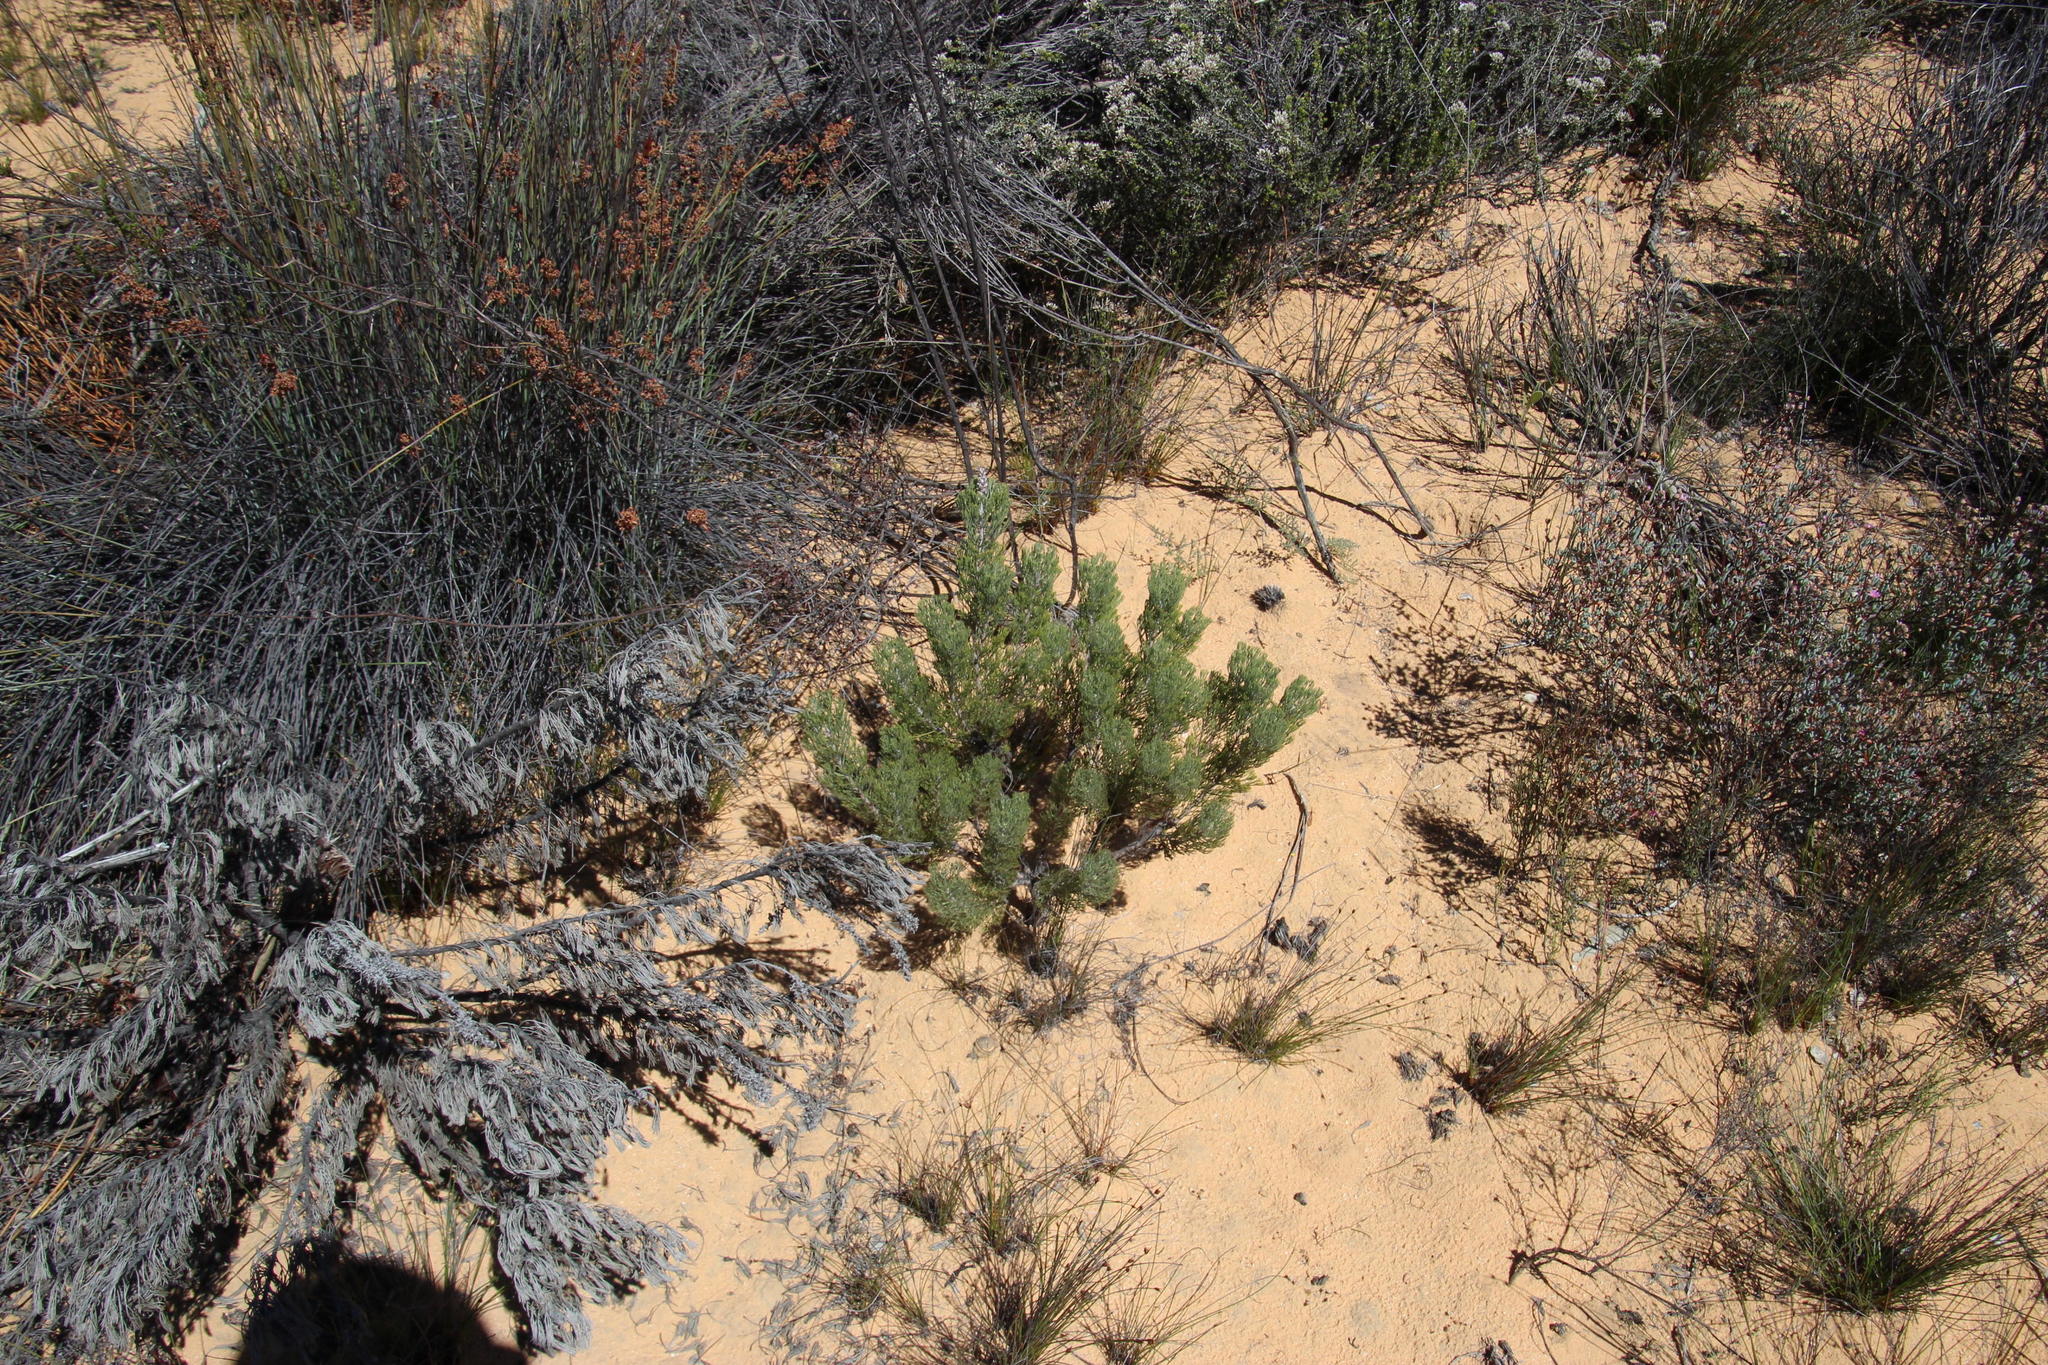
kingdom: Plantae
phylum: Tracheophyta
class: Magnoliopsida
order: Proteales
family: Proteaceae
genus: Paranomus
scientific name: Paranomus bracteolaris
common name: Bokkeveld tree sceptre
